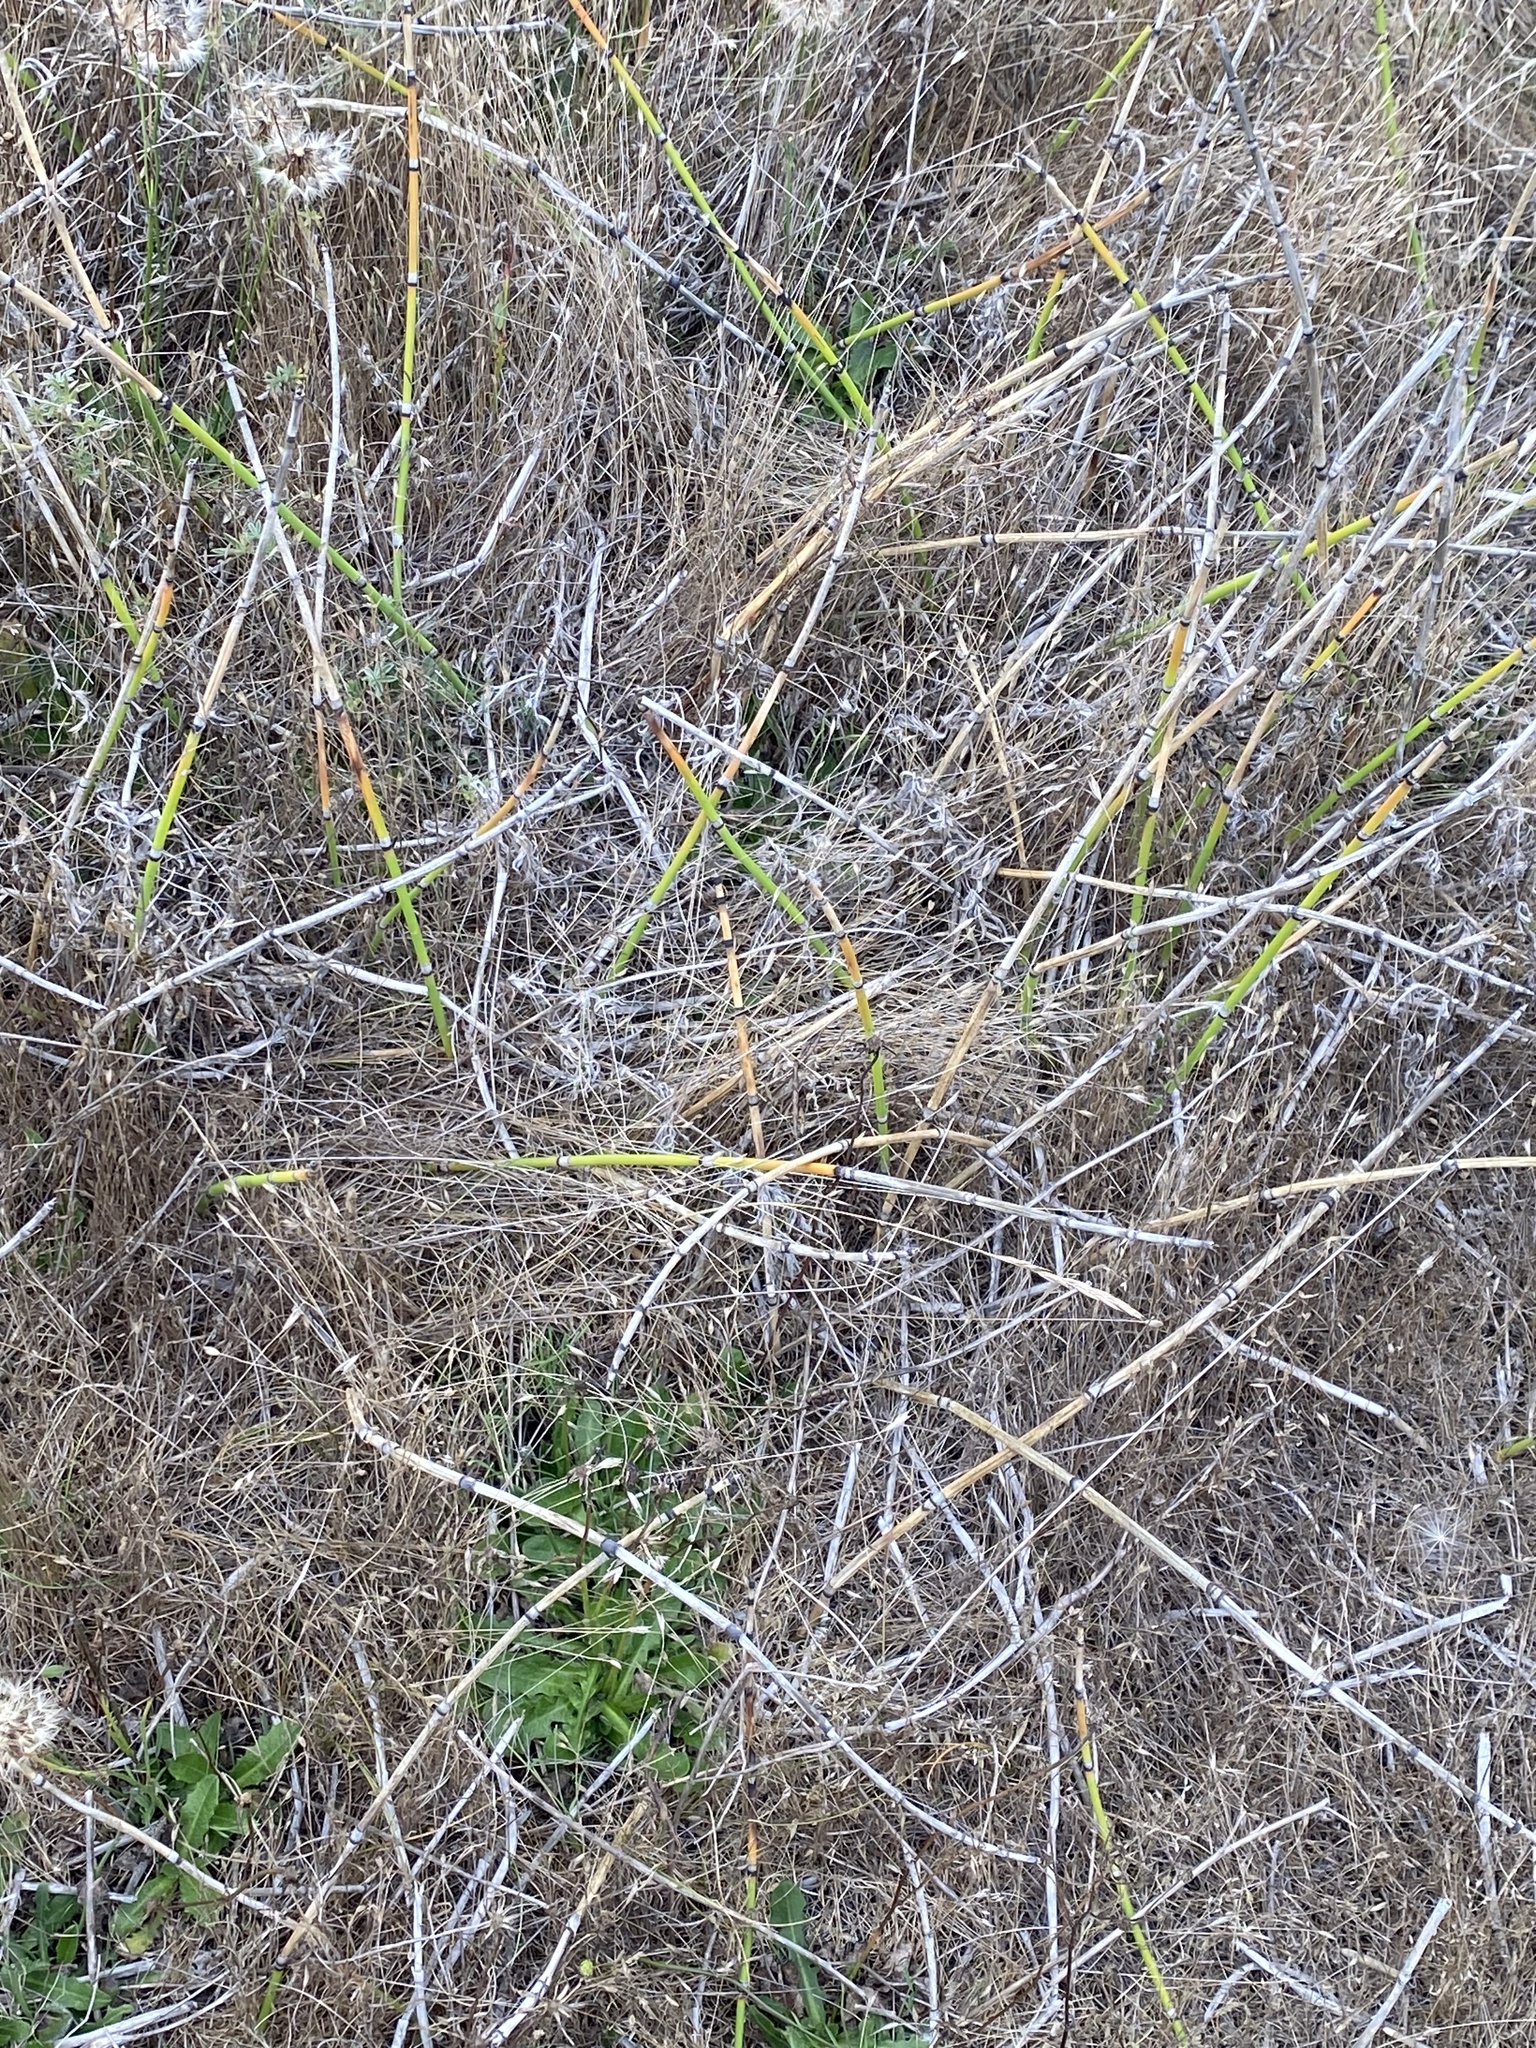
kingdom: Plantae
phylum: Tracheophyta
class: Polypodiopsida
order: Equisetales
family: Equisetaceae
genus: Equisetum
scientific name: Equisetum ferrissii
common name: Ferriss' horsetail
